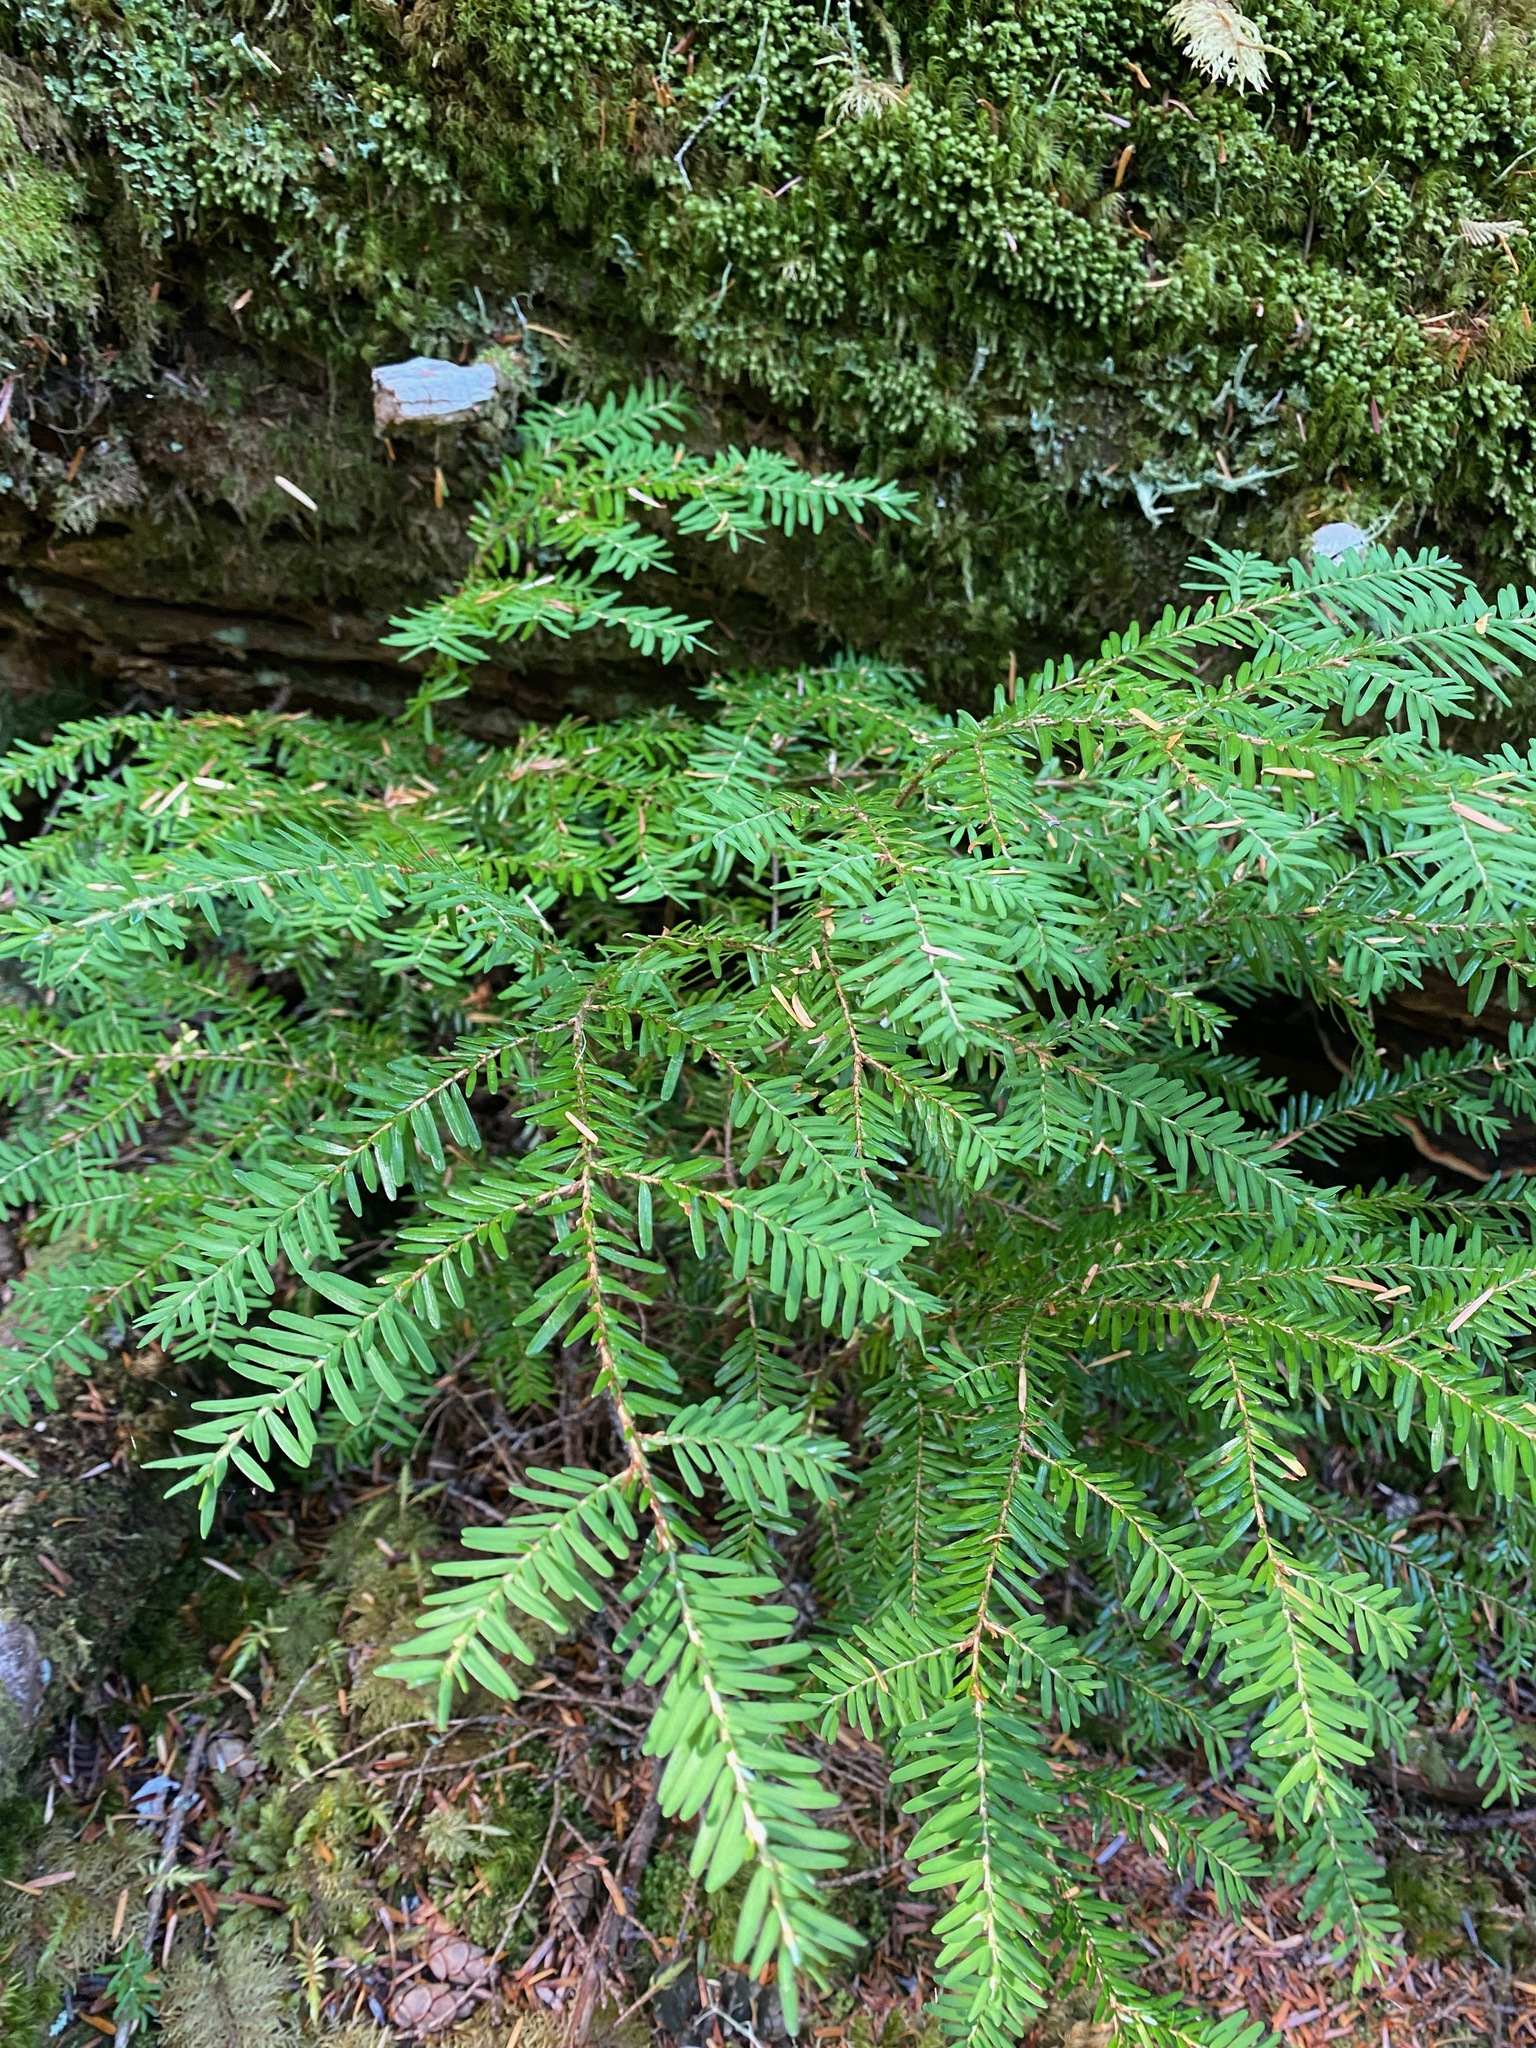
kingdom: Plantae
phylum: Tracheophyta
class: Pinopsida
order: Pinales
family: Pinaceae
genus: Tsuga
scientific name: Tsuga heterophylla
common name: Western hemlock
